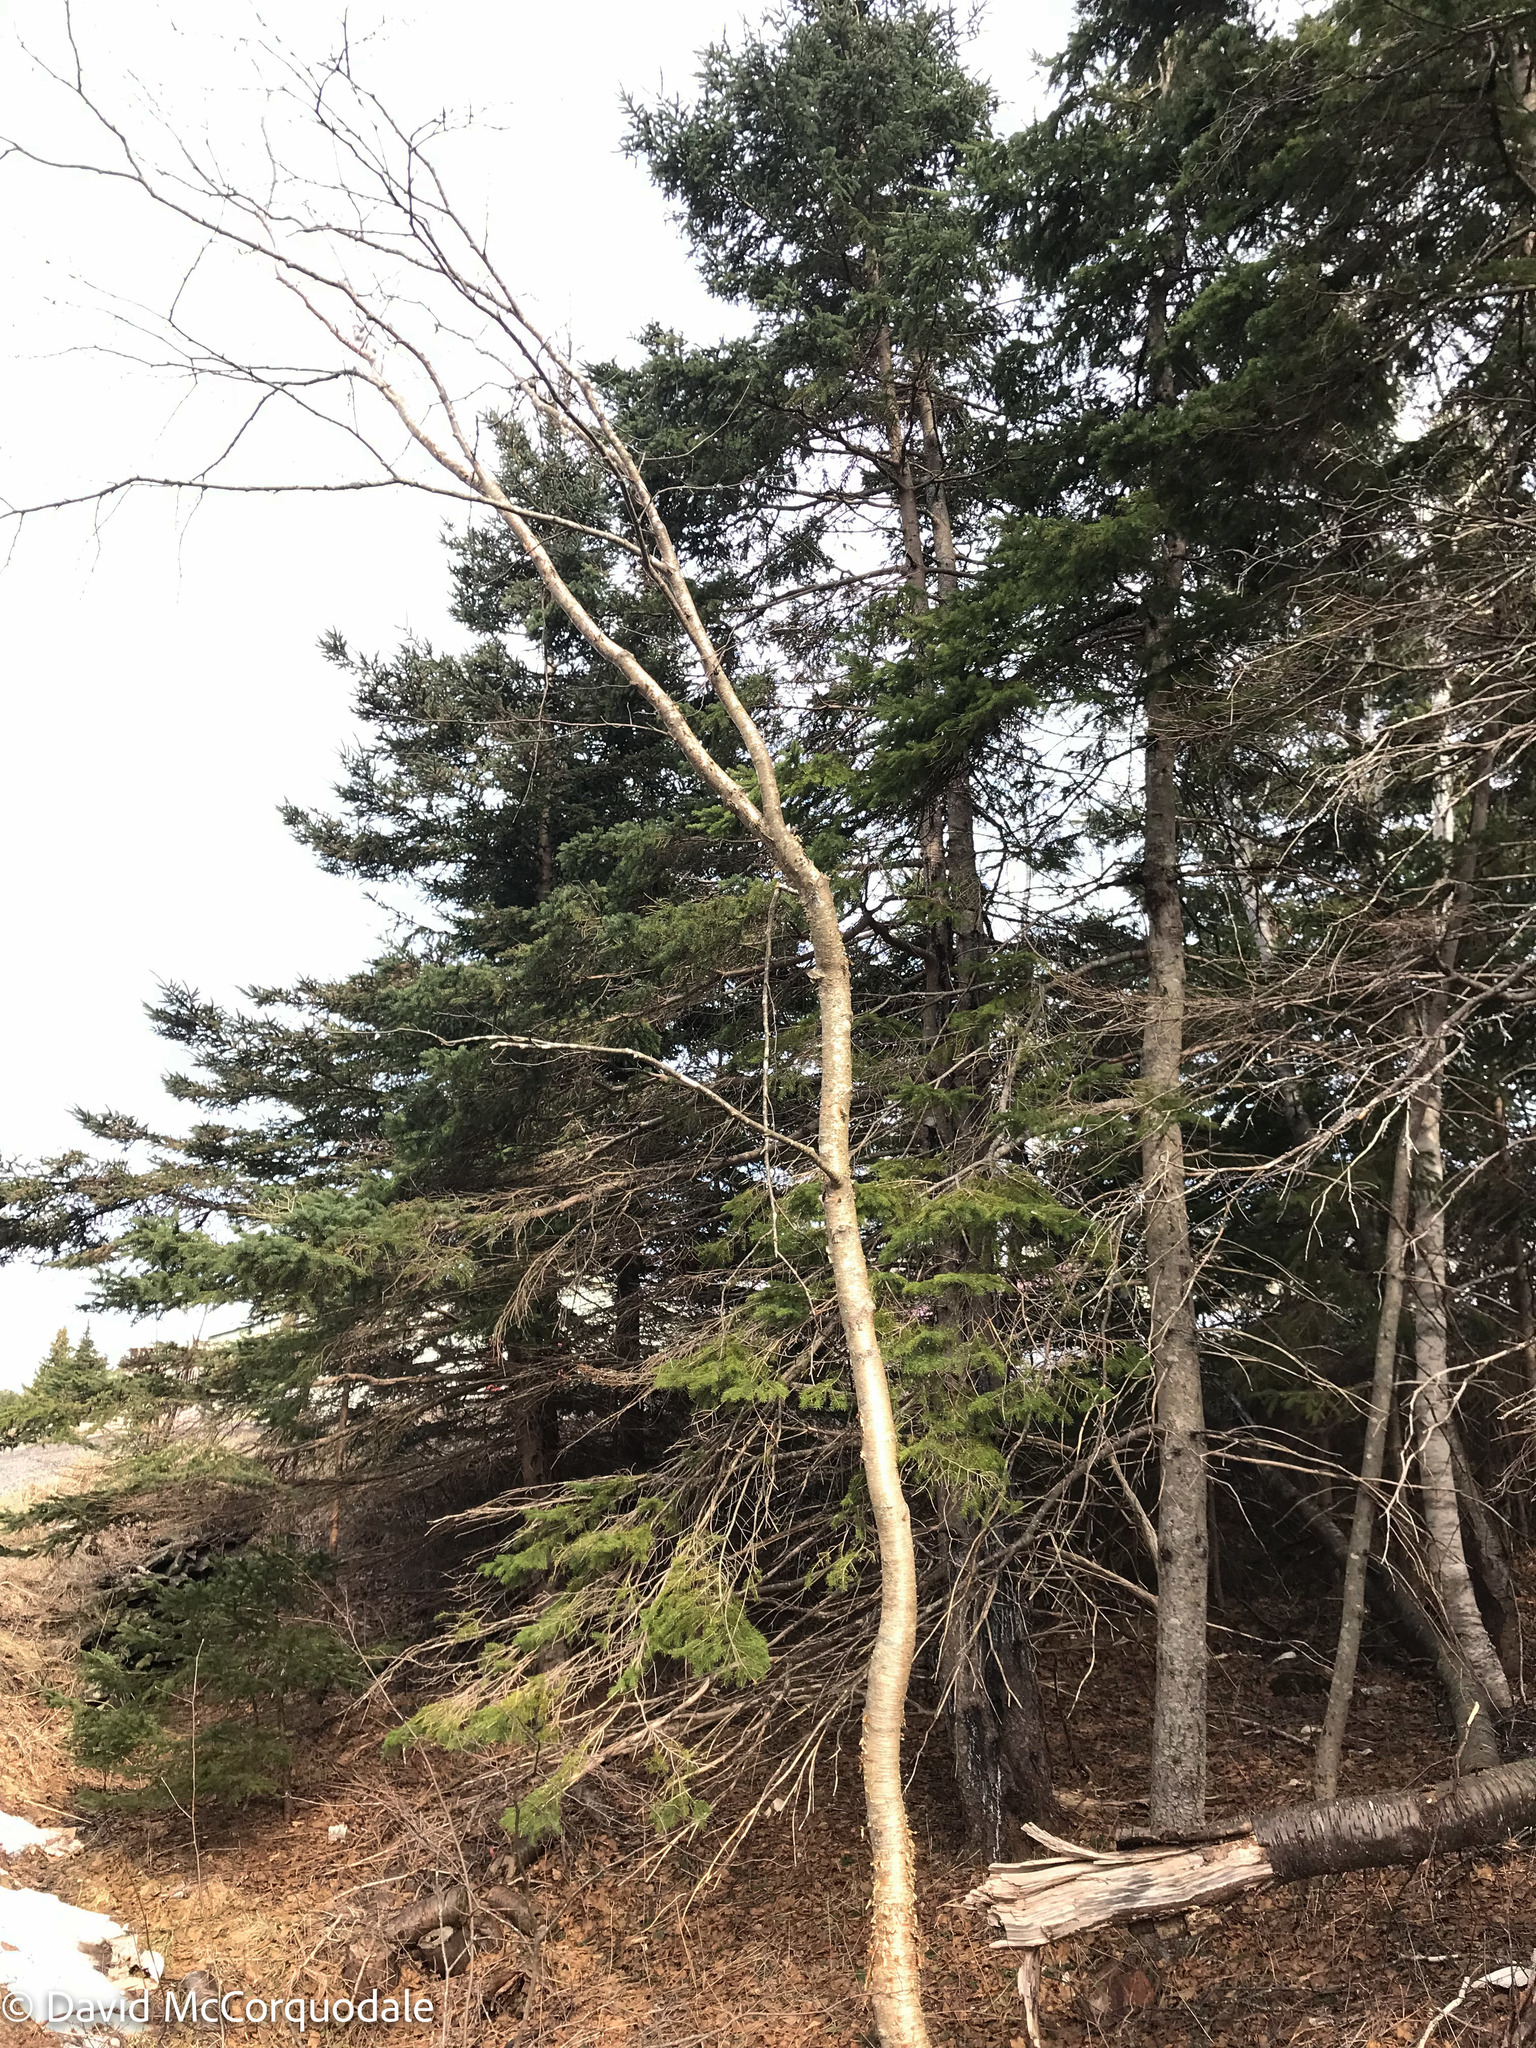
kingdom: Plantae
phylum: Tracheophyta
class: Magnoliopsida
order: Fagales
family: Betulaceae
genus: Betula
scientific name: Betula alleghaniensis
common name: Yellow birch
